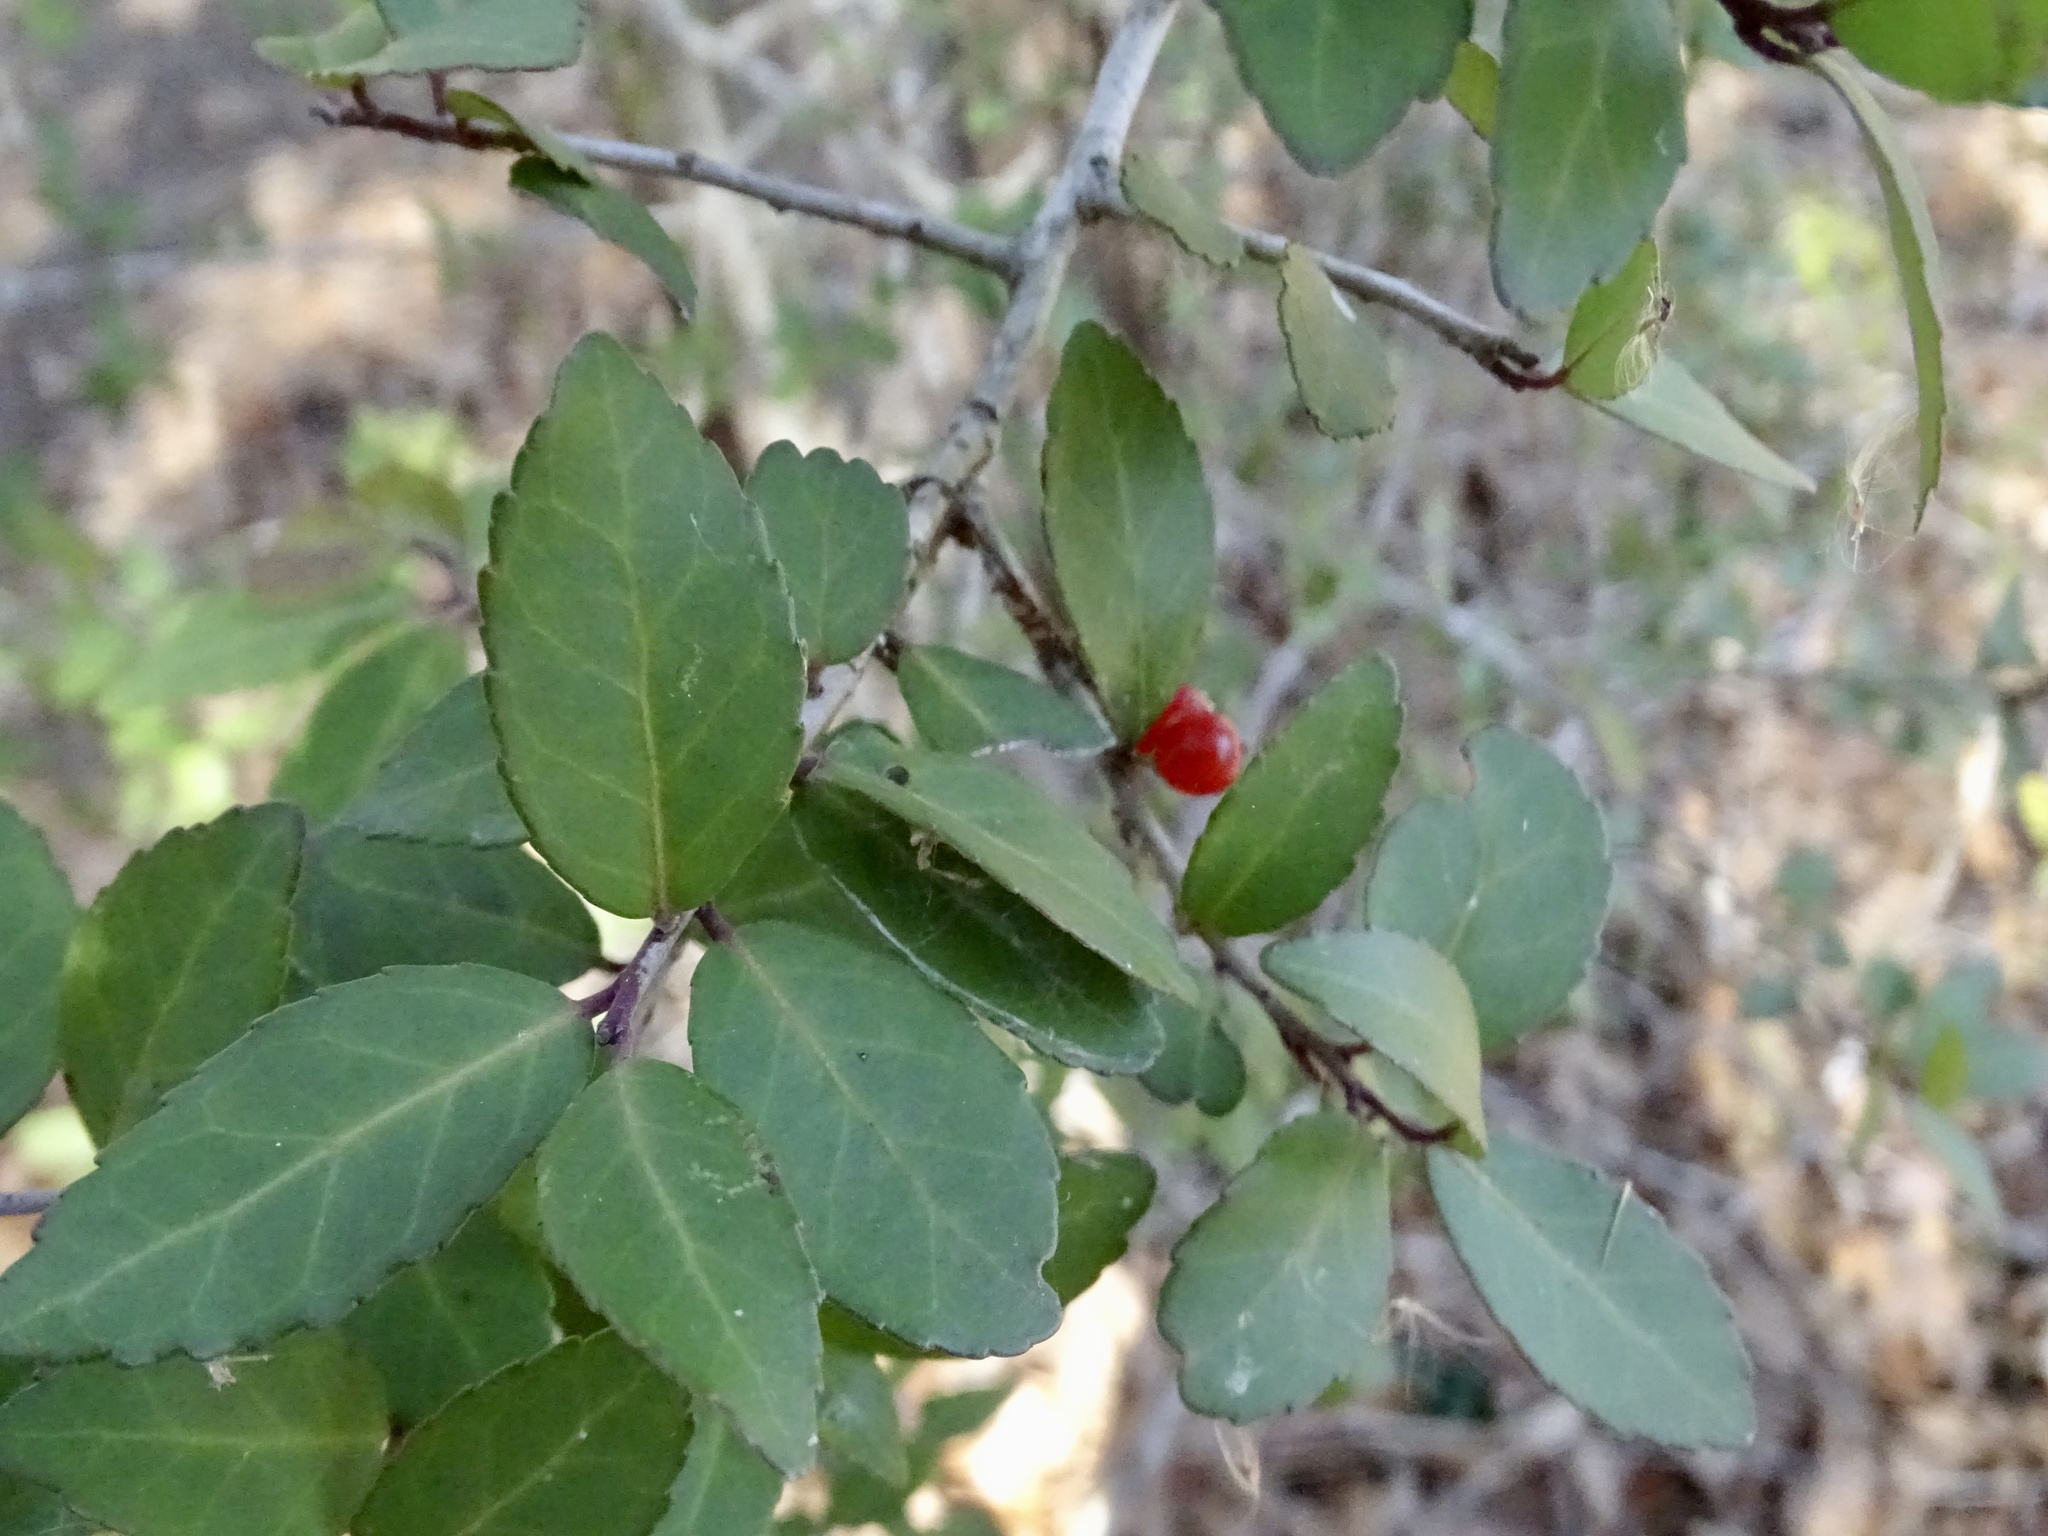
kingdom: Plantae
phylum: Tracheophyta
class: Magnoliopsida
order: Aquifoliales
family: Aquifoliaceae
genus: Ilex
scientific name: Ilex vomitoria
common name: Yaupon holly
